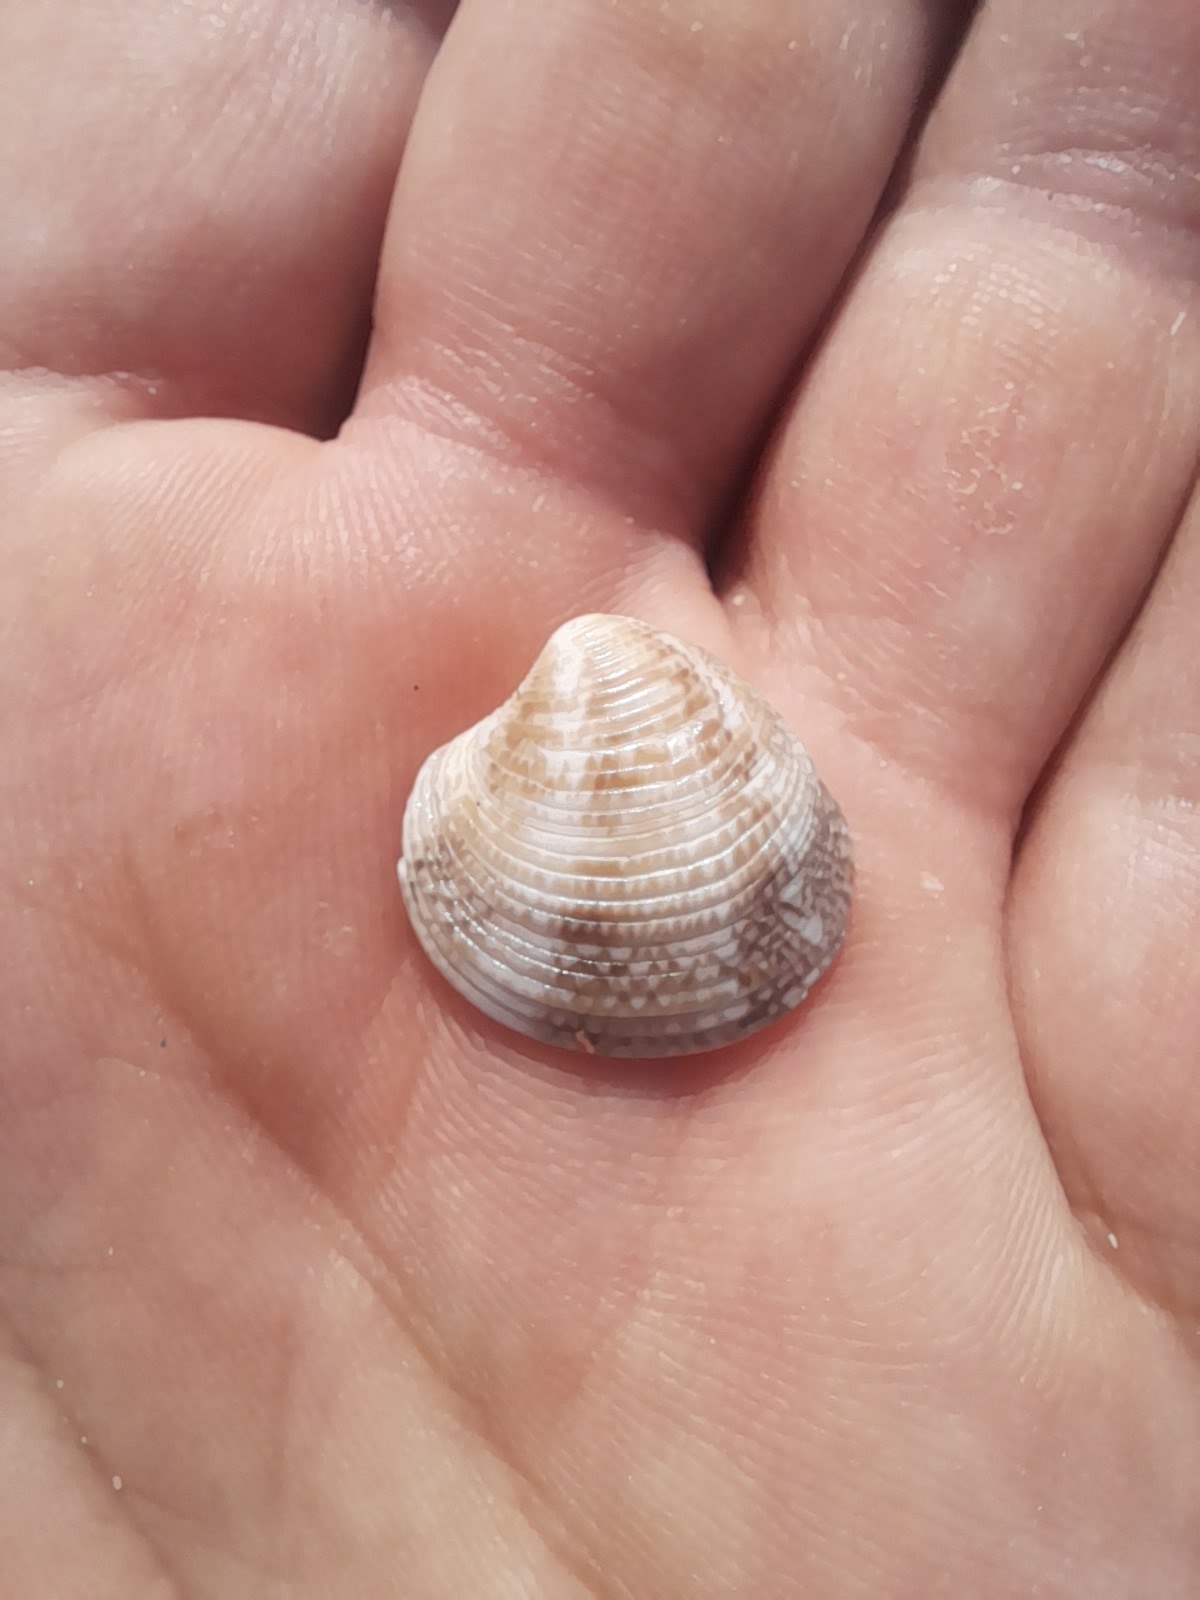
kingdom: Animalia
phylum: Mollusca
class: Bivalvia
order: Venerida
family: Veneridae
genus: Chamelea
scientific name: Chamelea gallina
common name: Chicken venus
